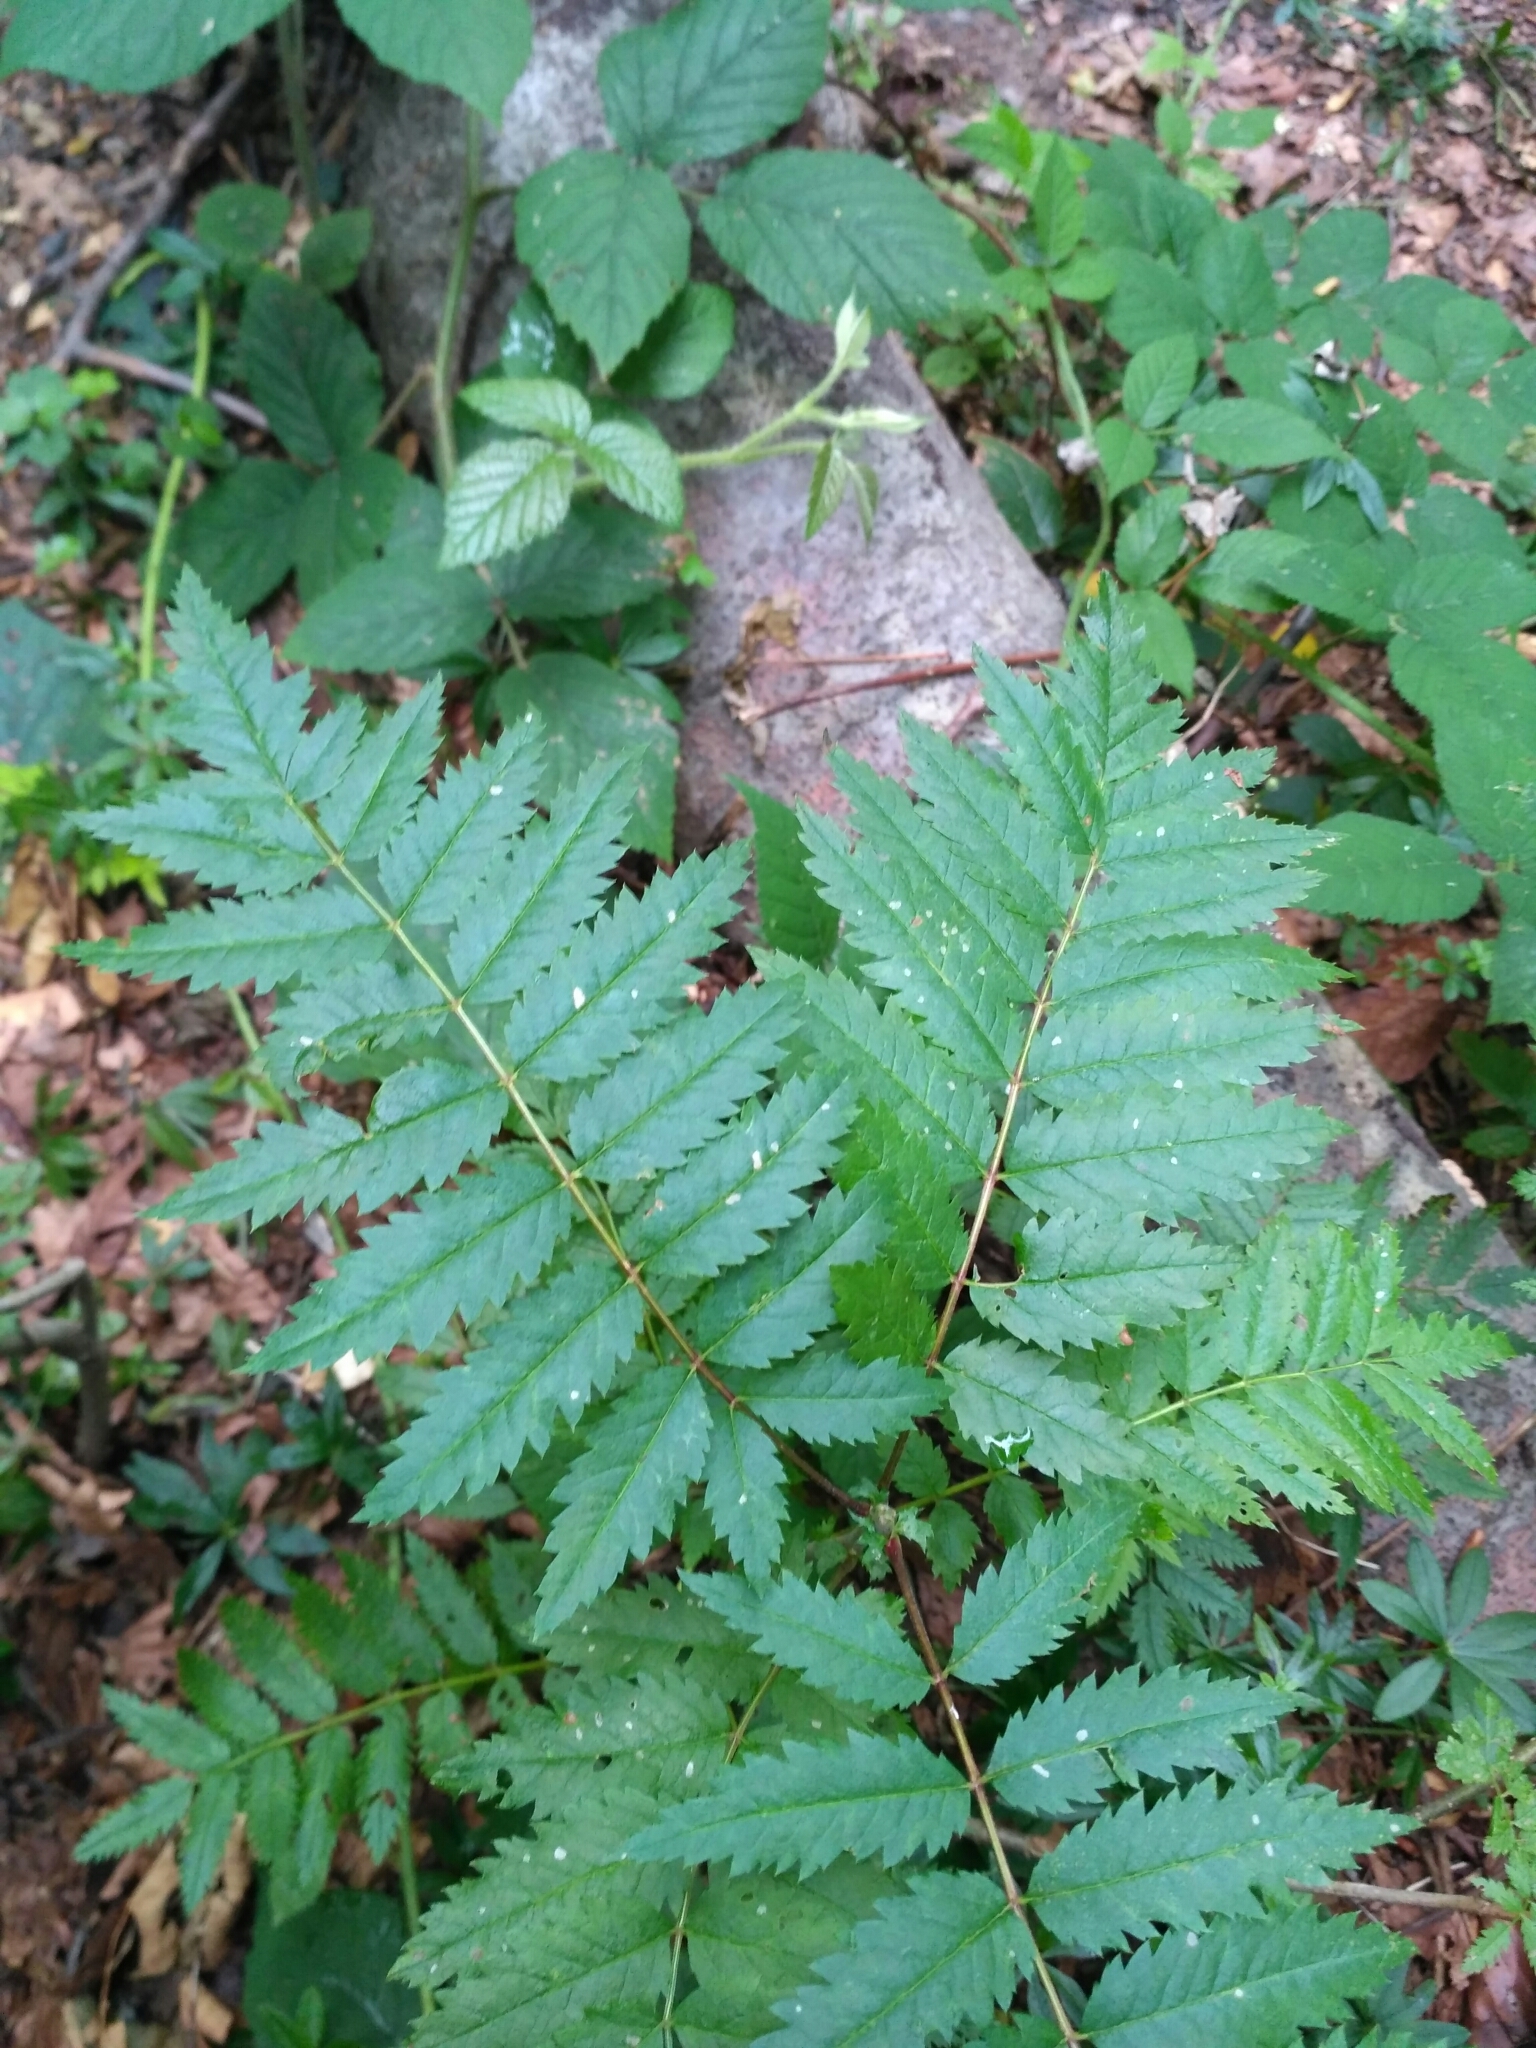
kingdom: Plantae
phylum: Tracheophyta
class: Magnoliopsida
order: Rosales
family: Rosaceae
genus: Sorbus
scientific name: Sorbus aucuparia
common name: Rowan
